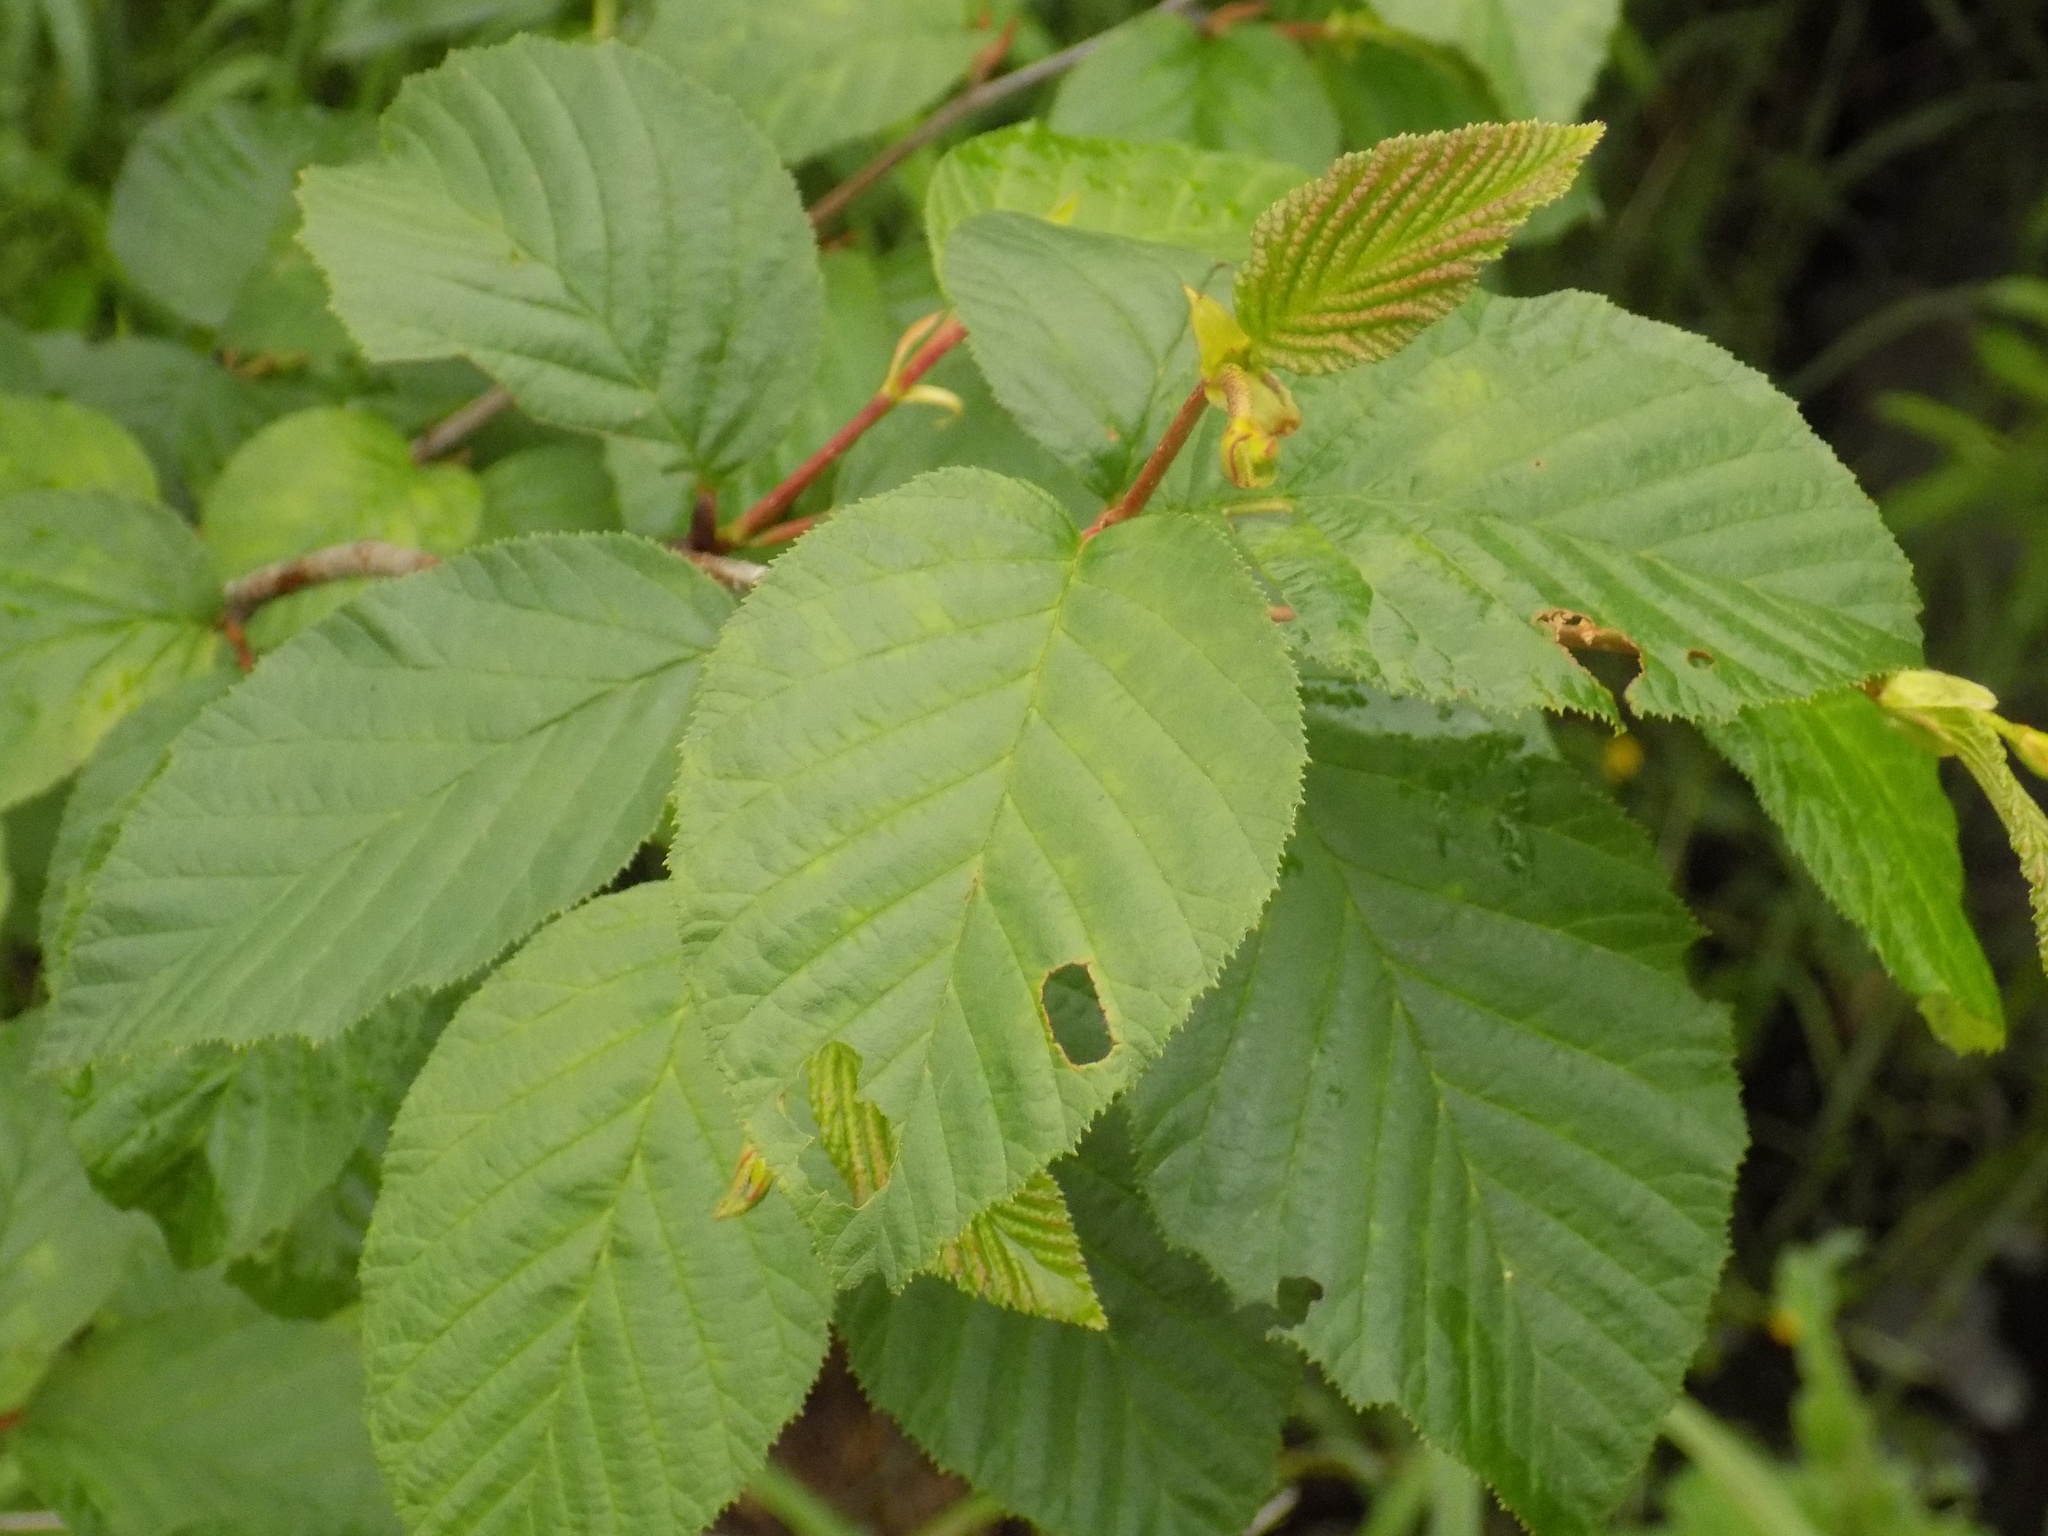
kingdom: Plantae
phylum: Tracheophyta
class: Magnoliopsida
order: Fagales
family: Betulaceae
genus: Alnus
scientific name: Alnus alnobetula
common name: Green alder
